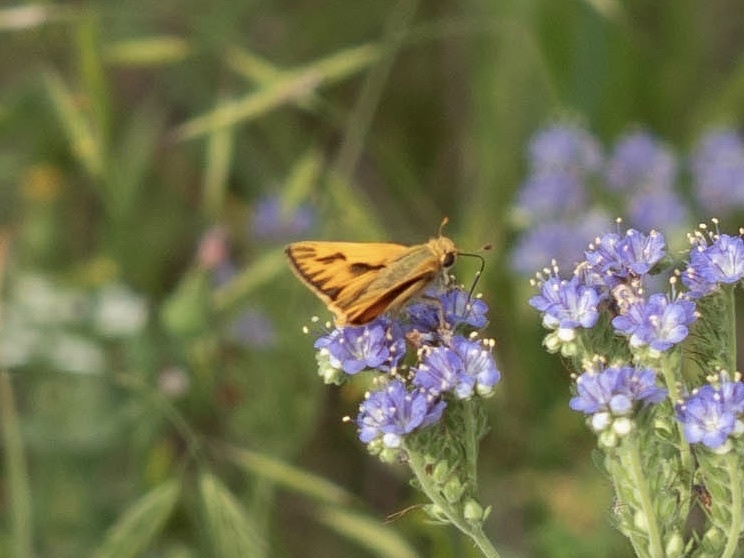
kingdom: Animalia
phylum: Arthropoda
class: Insecta
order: Lepidoptera
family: Hesperiidae
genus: Hylephila
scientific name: Hylephila phyleus
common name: Fiery skipper
